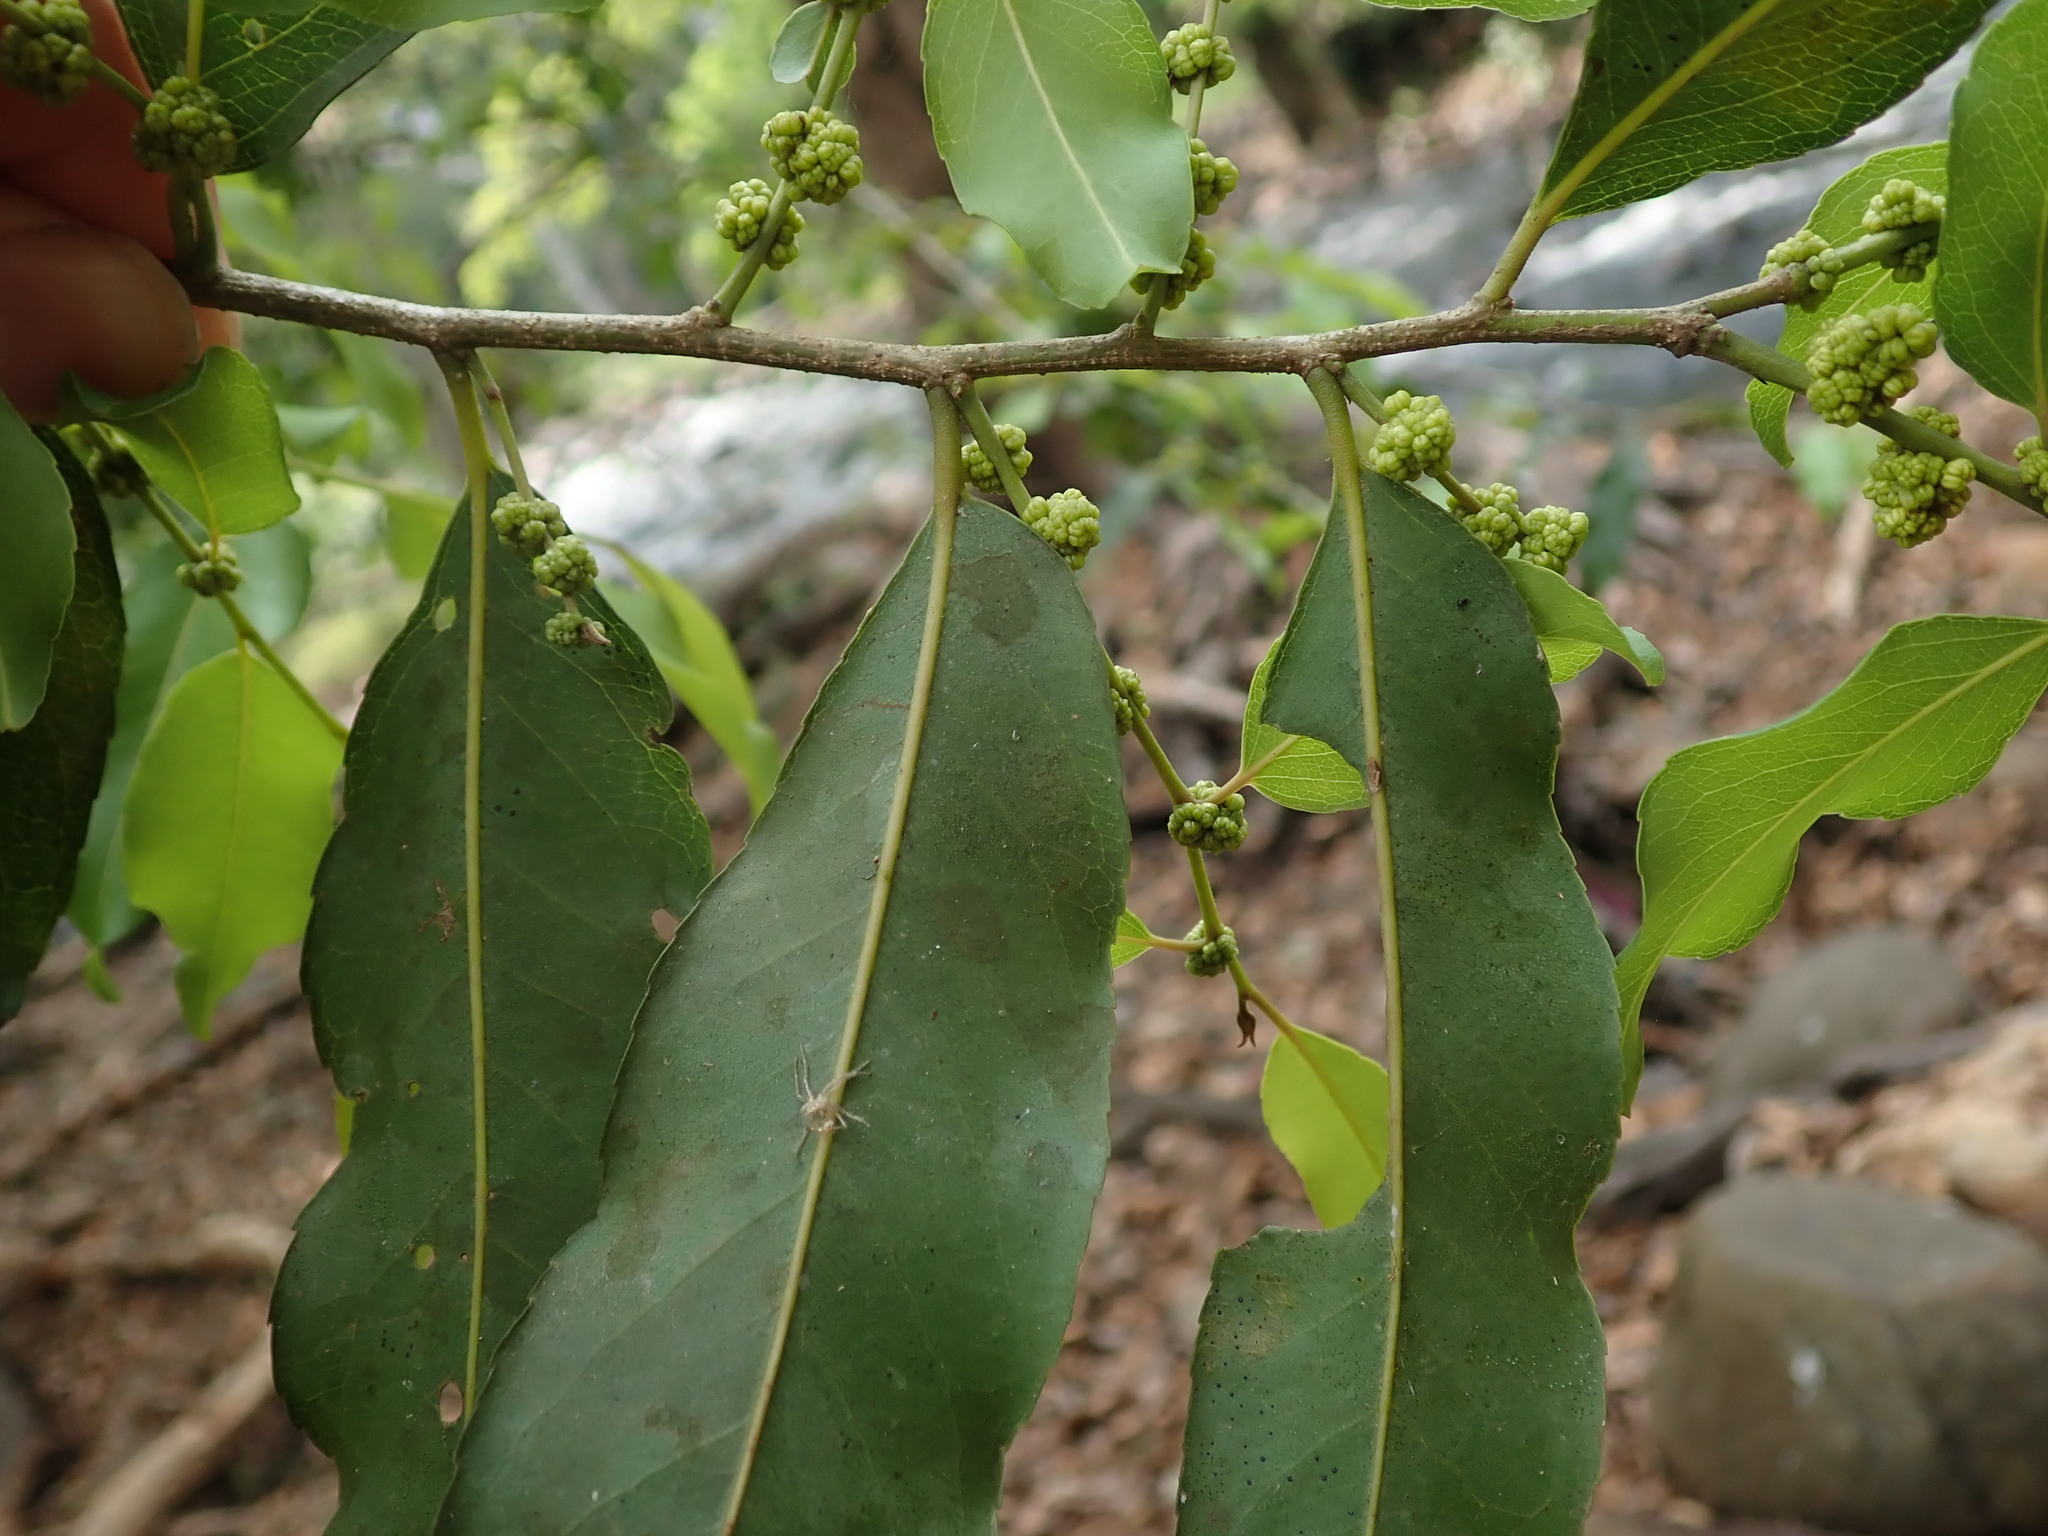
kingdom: Plantae
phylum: Tracheophyta
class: Magnoliopsida
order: Malpighiales
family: Putranjivaceae
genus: Putranjiva
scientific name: Putranjiva roxburghii
